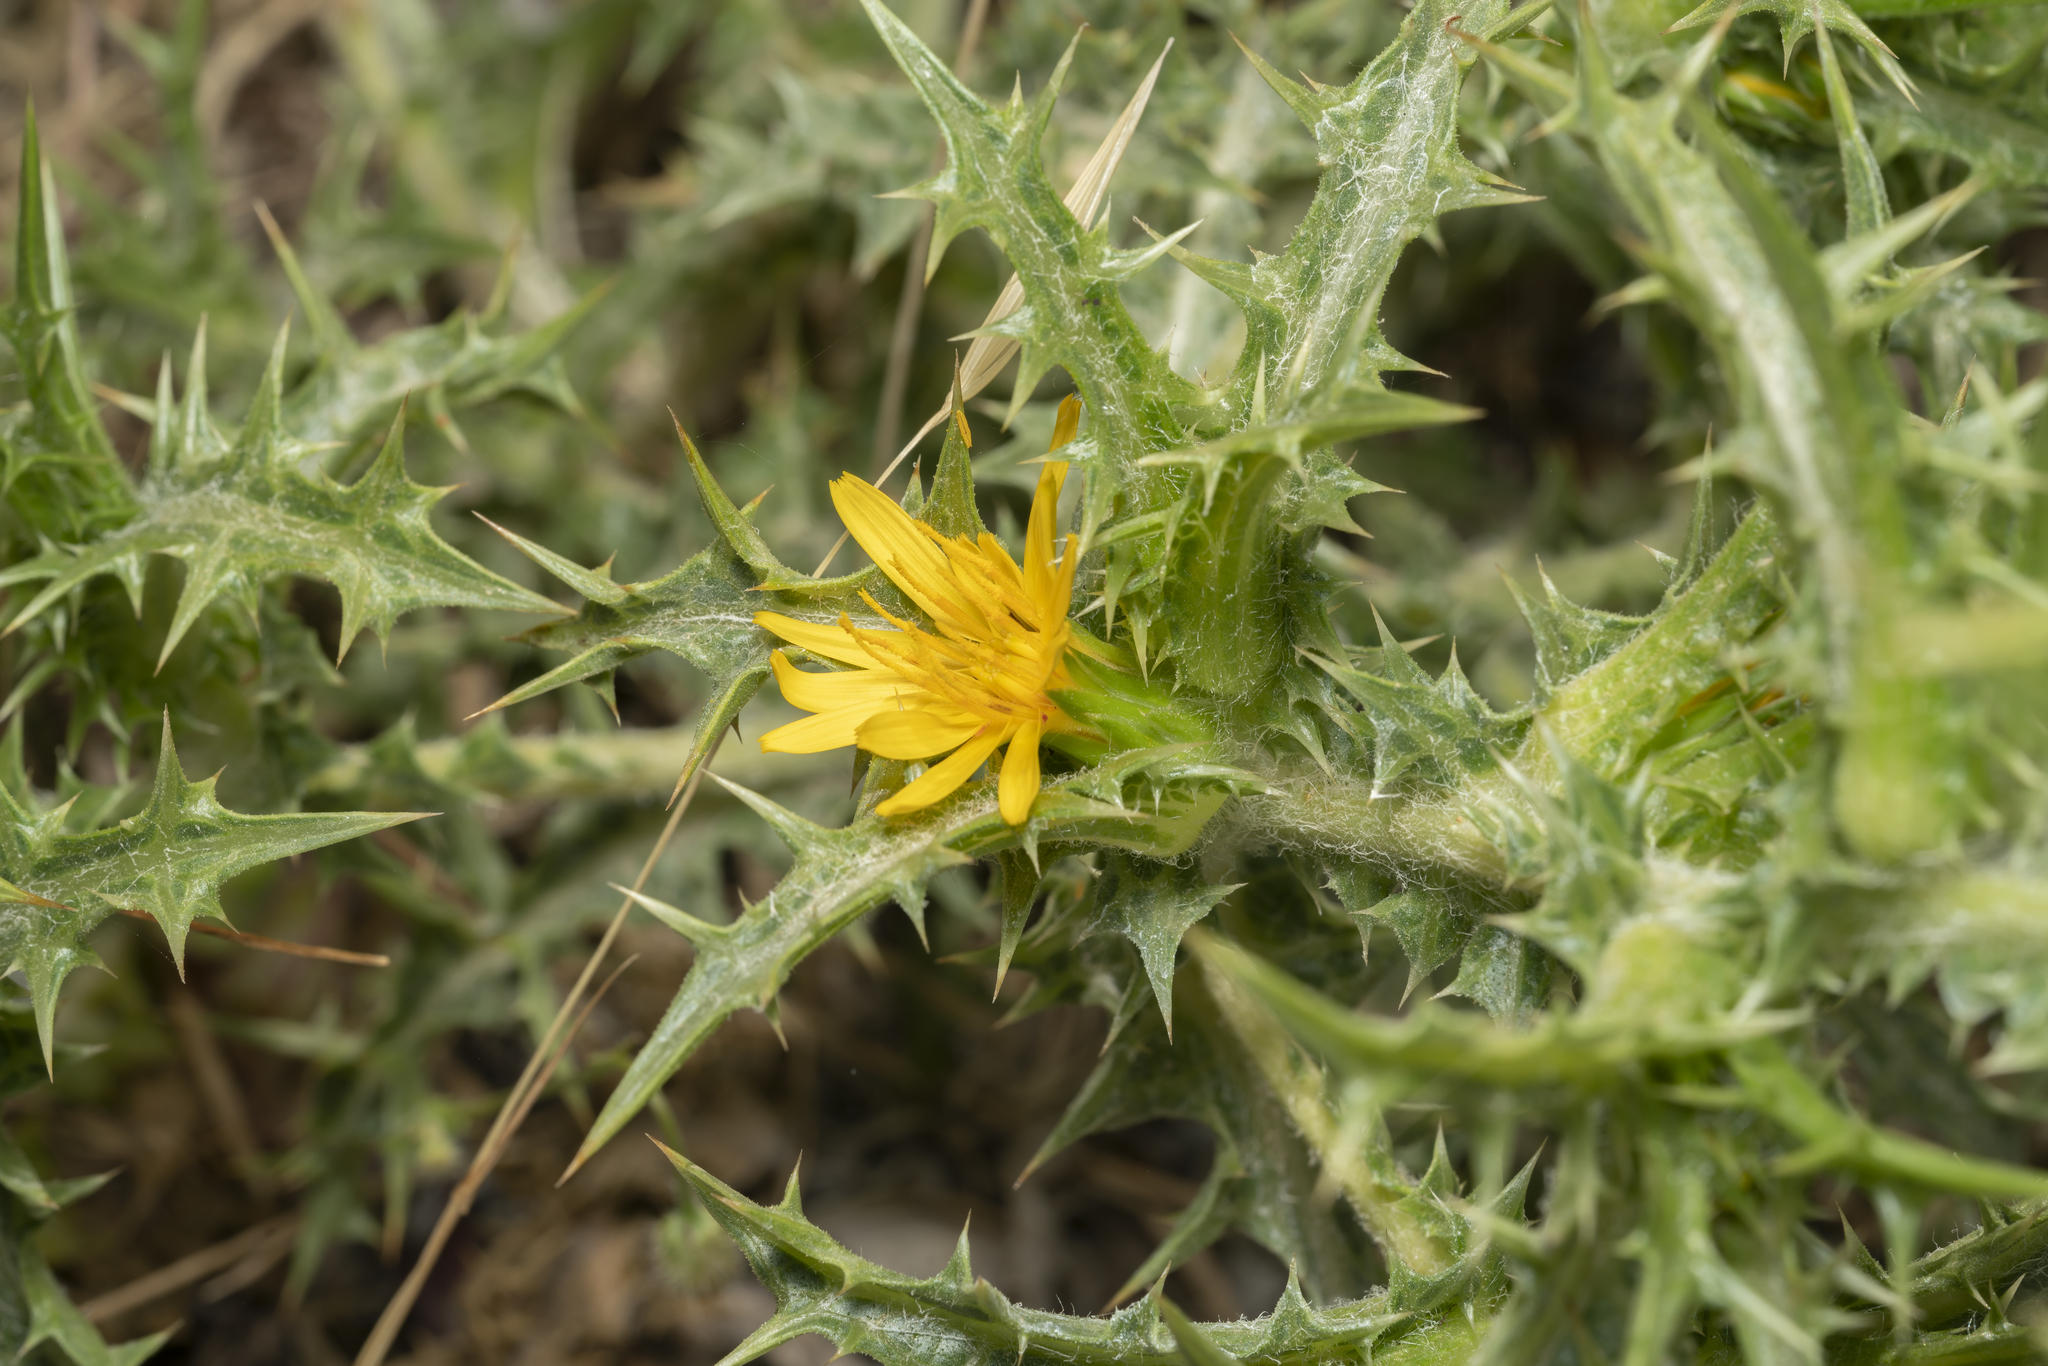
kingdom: Plantae
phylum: Tracheophyta
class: Magnoliopsida
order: Asterales
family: Asteraceae
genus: Scolymus
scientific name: Scolymus hispanicus
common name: Golden thistle
